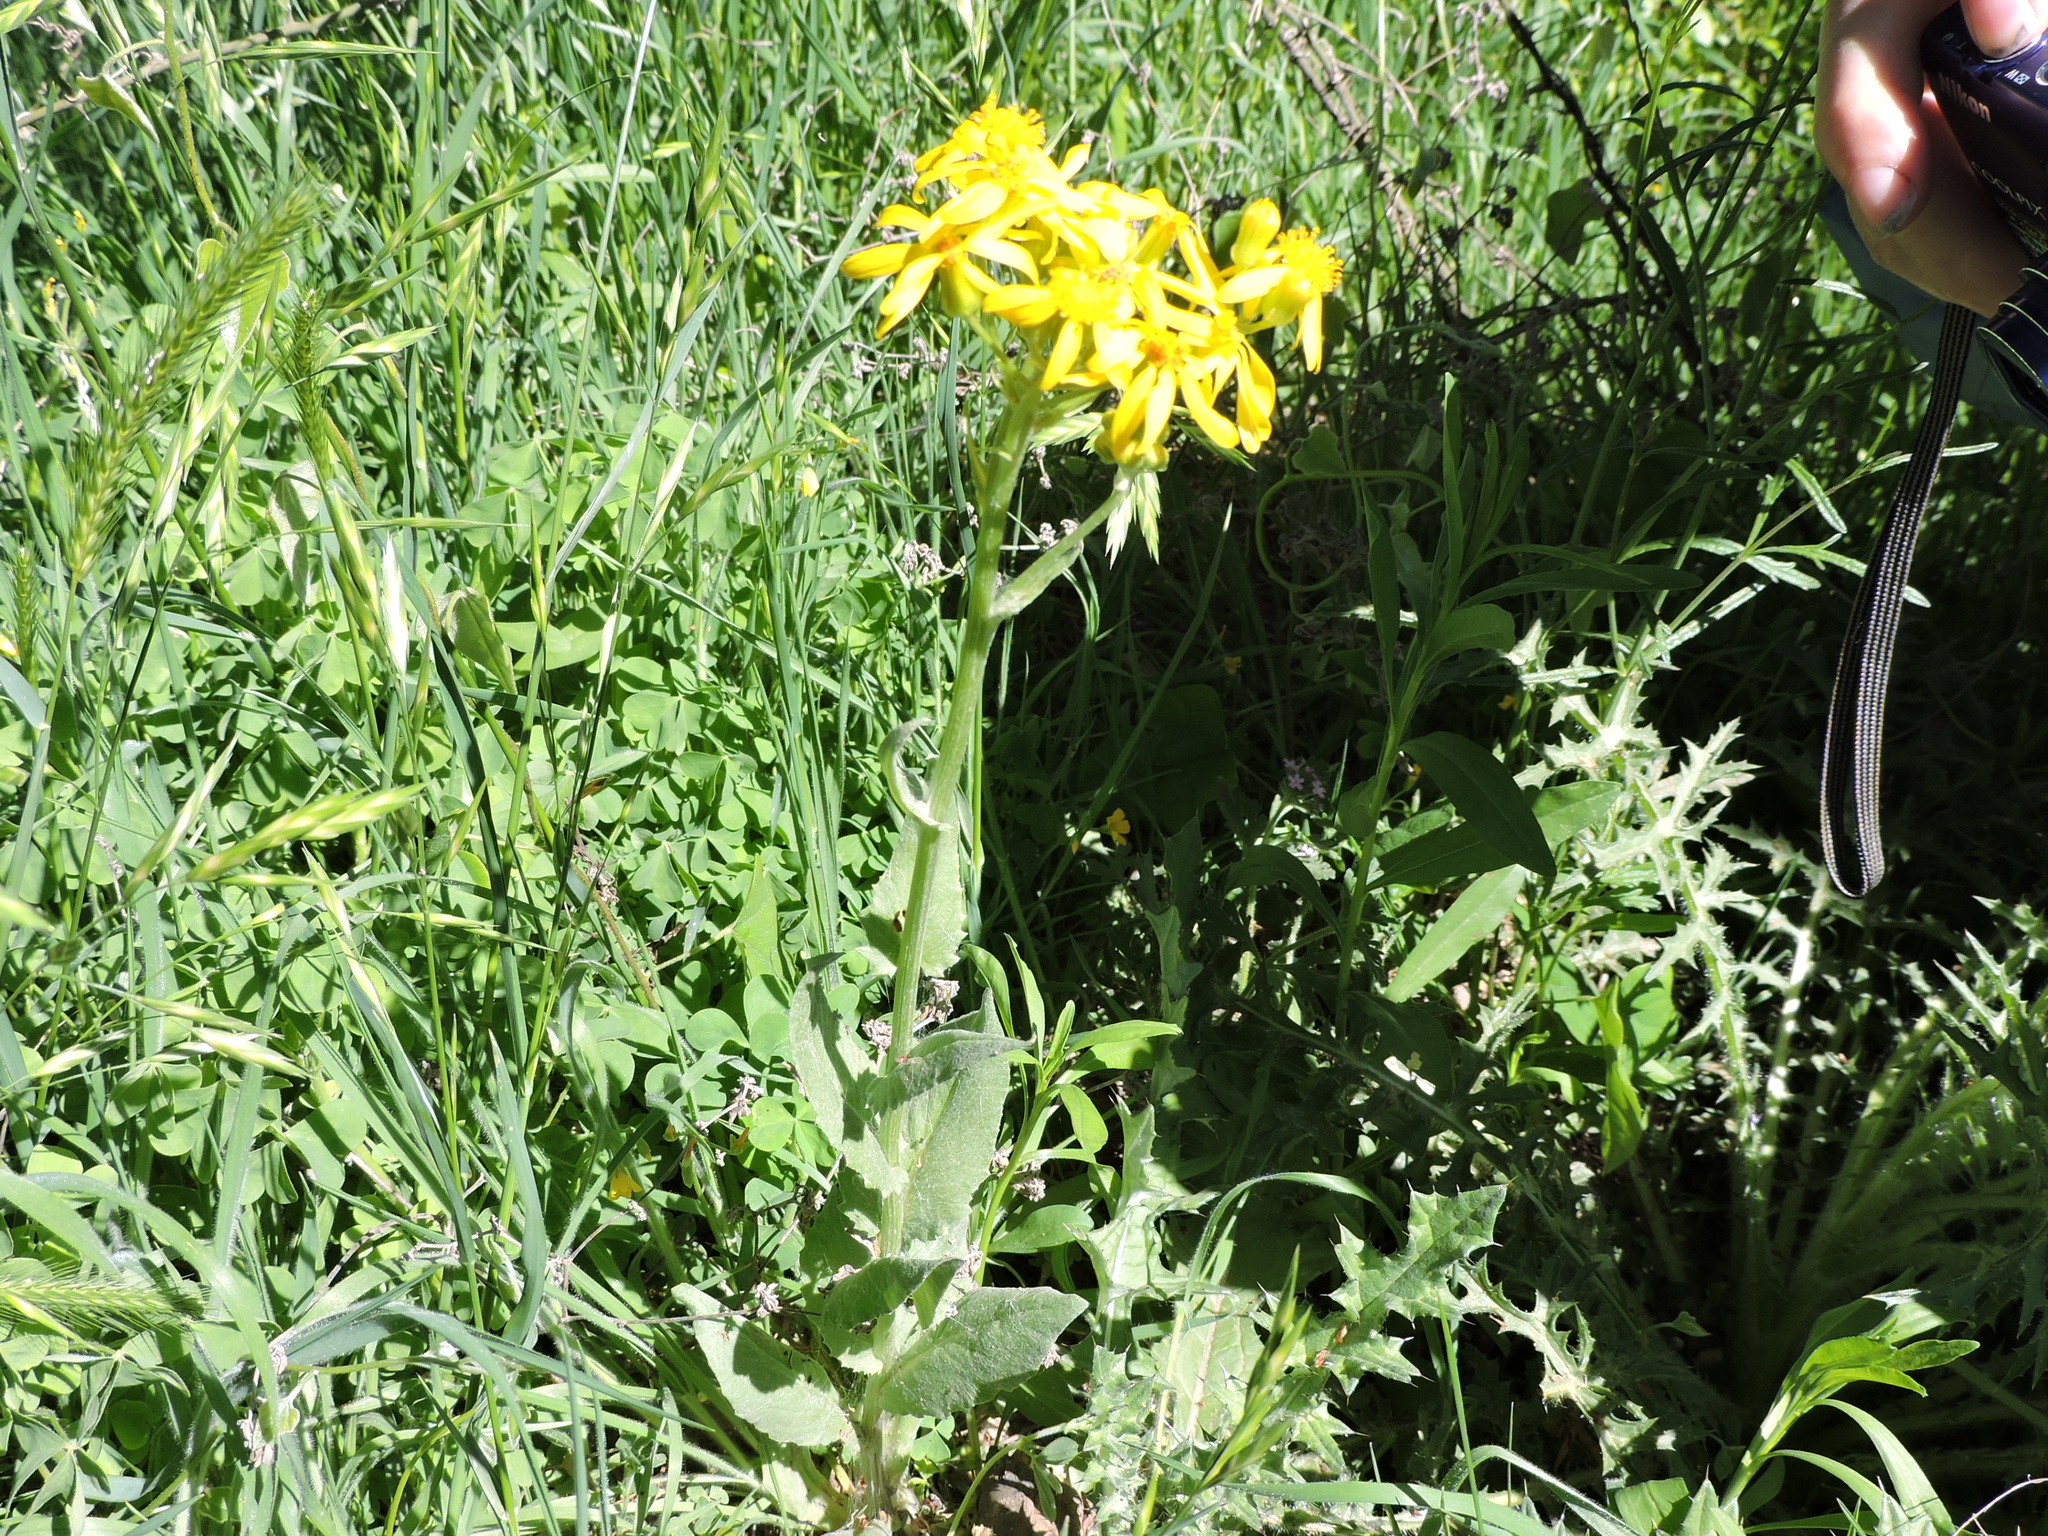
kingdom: Plantae
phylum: Tracheophyta
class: Magnoliopsida
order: Asterales
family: Asteraceae
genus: Senecio
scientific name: Senecio ampullaceus
